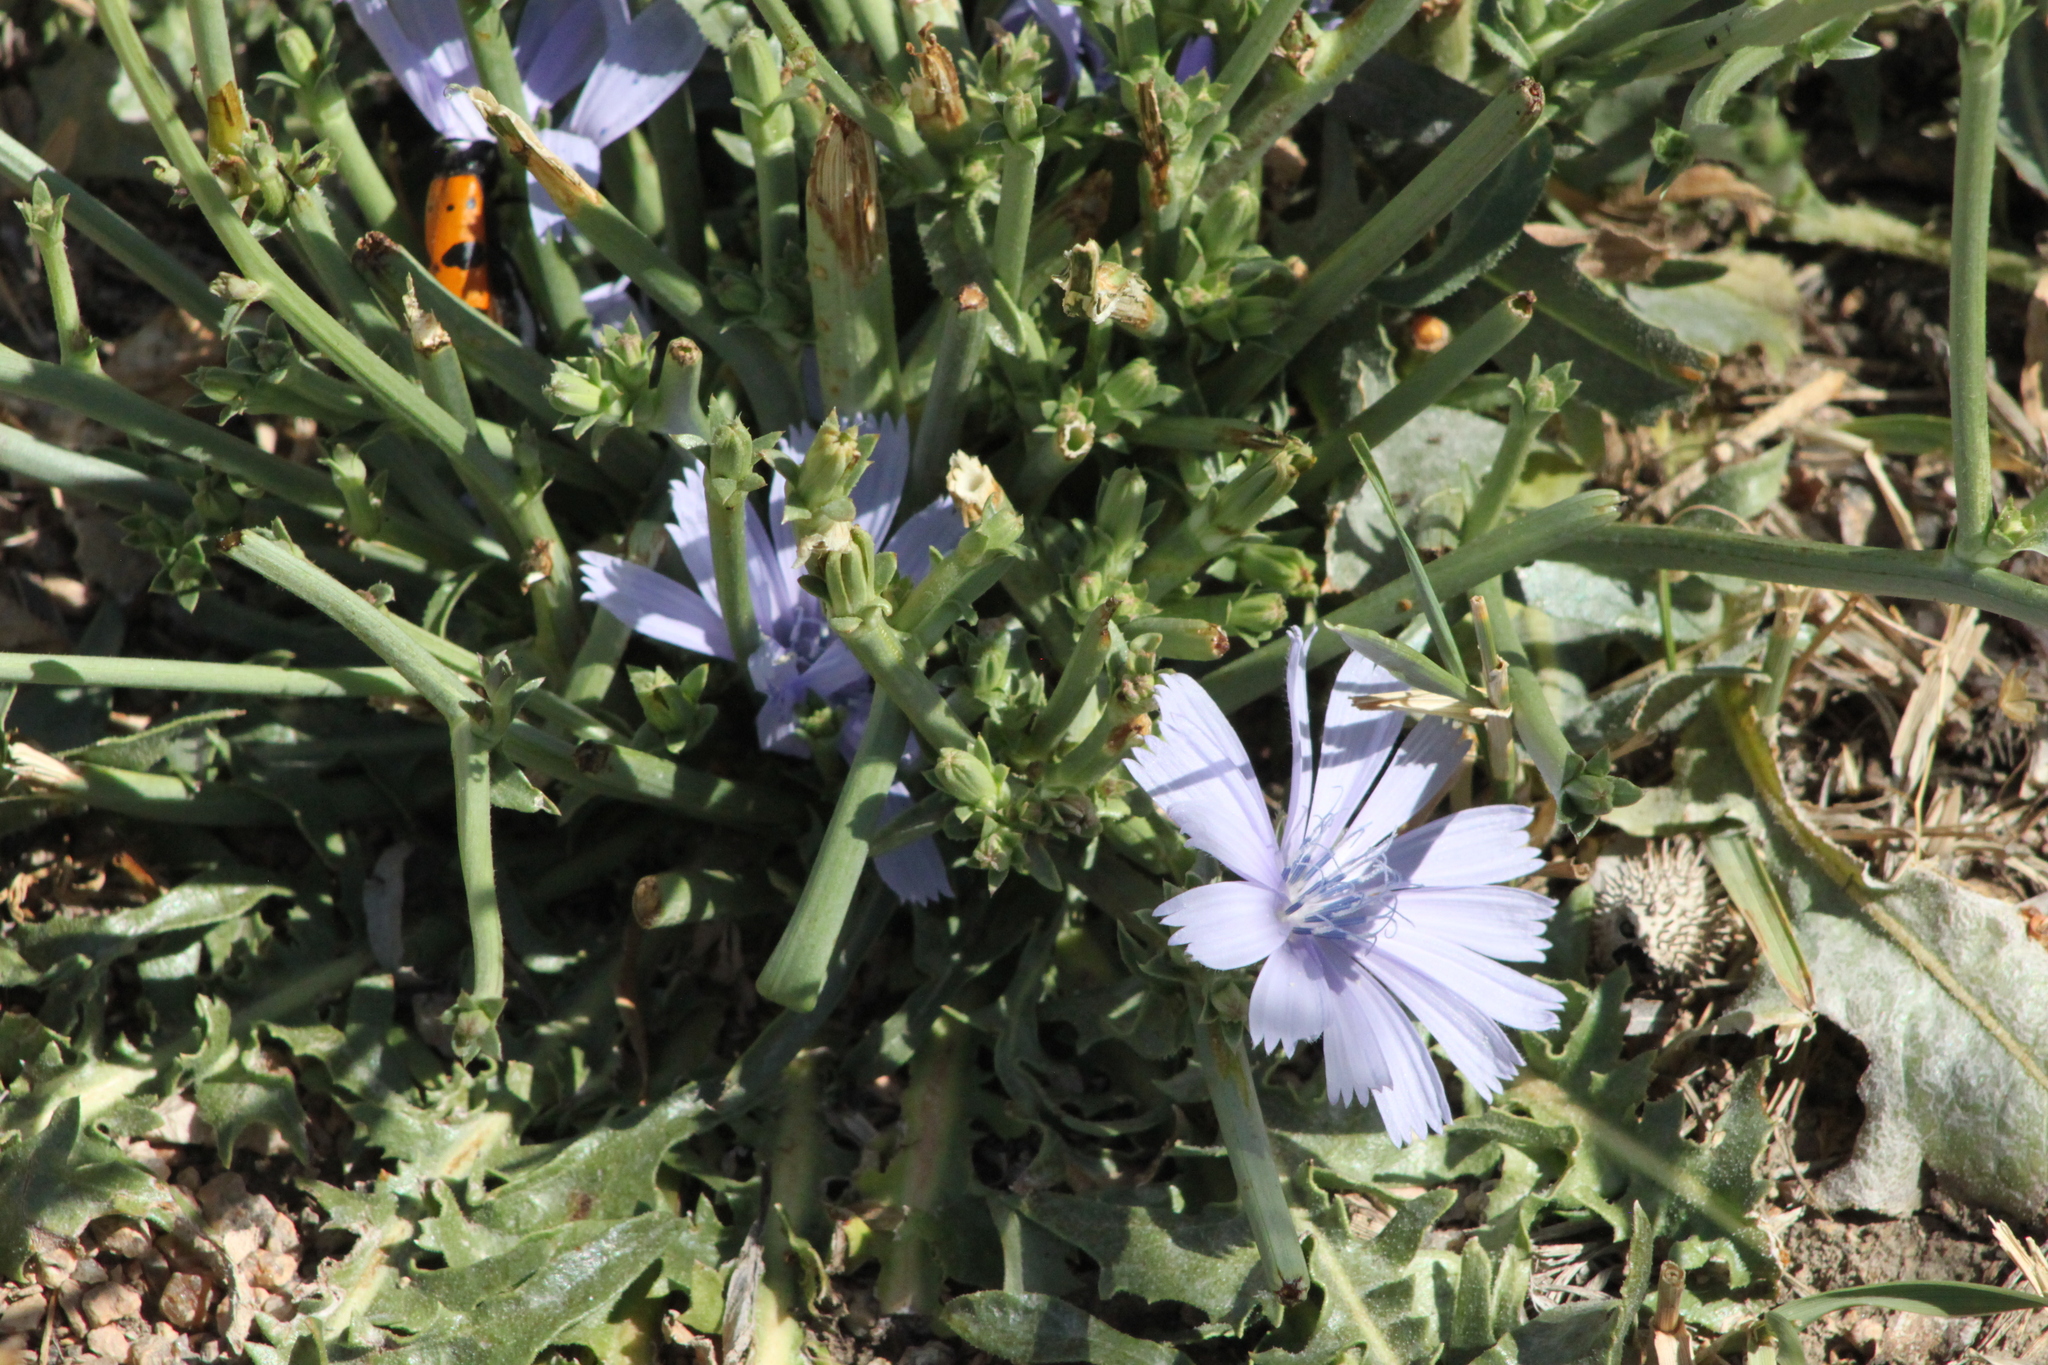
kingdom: Plantae
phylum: Tracheophyta
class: Magnoliopsida
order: Asterales
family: Asteraceae
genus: Cichorium
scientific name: Cichorium intybus
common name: Chicory
